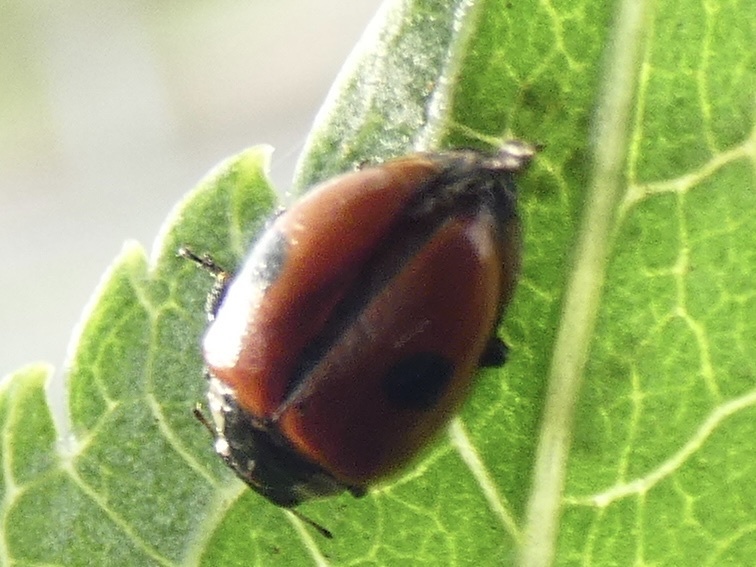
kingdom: Animalia
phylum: Arthropoda
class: Insecta
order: Coleoptera
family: Coccinellidae
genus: Adalia
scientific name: Adalia bipunctata
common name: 2-spot ladybird
